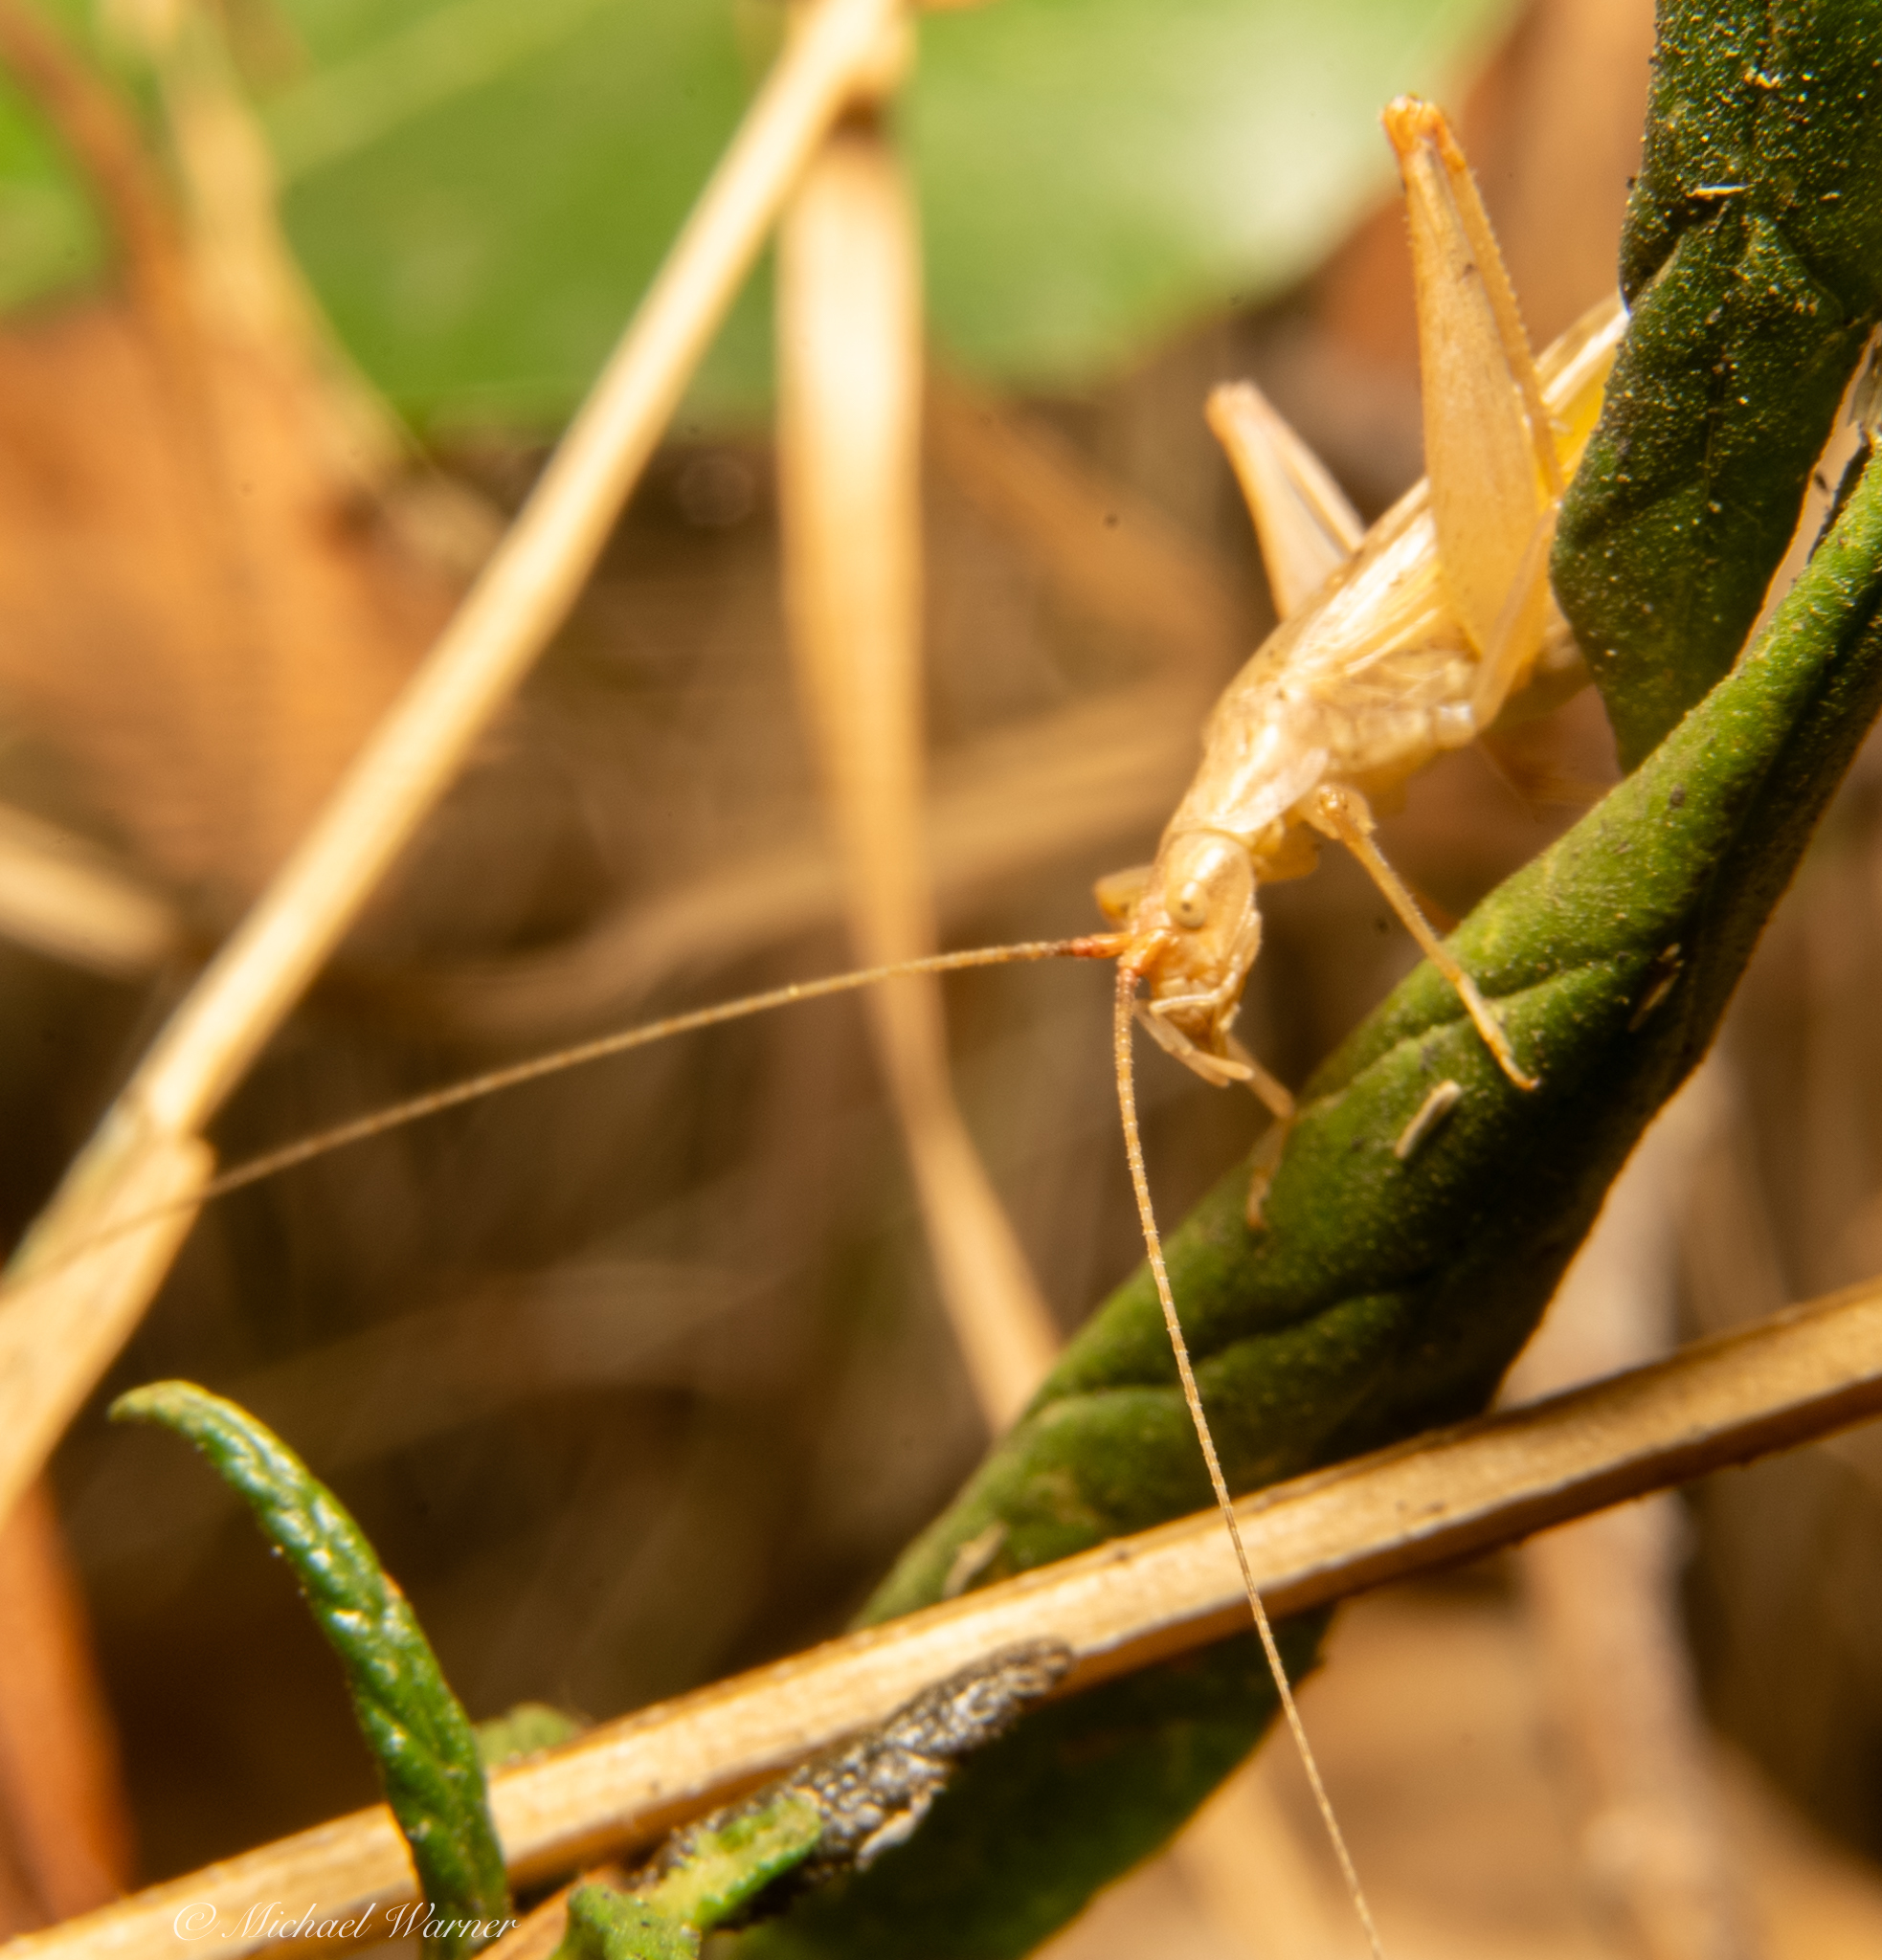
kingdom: Animalia
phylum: Arthropoda
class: Insecta
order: Orthoptera
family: Gryllidae
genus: Oecanthus
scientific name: Oecanthus californicus
